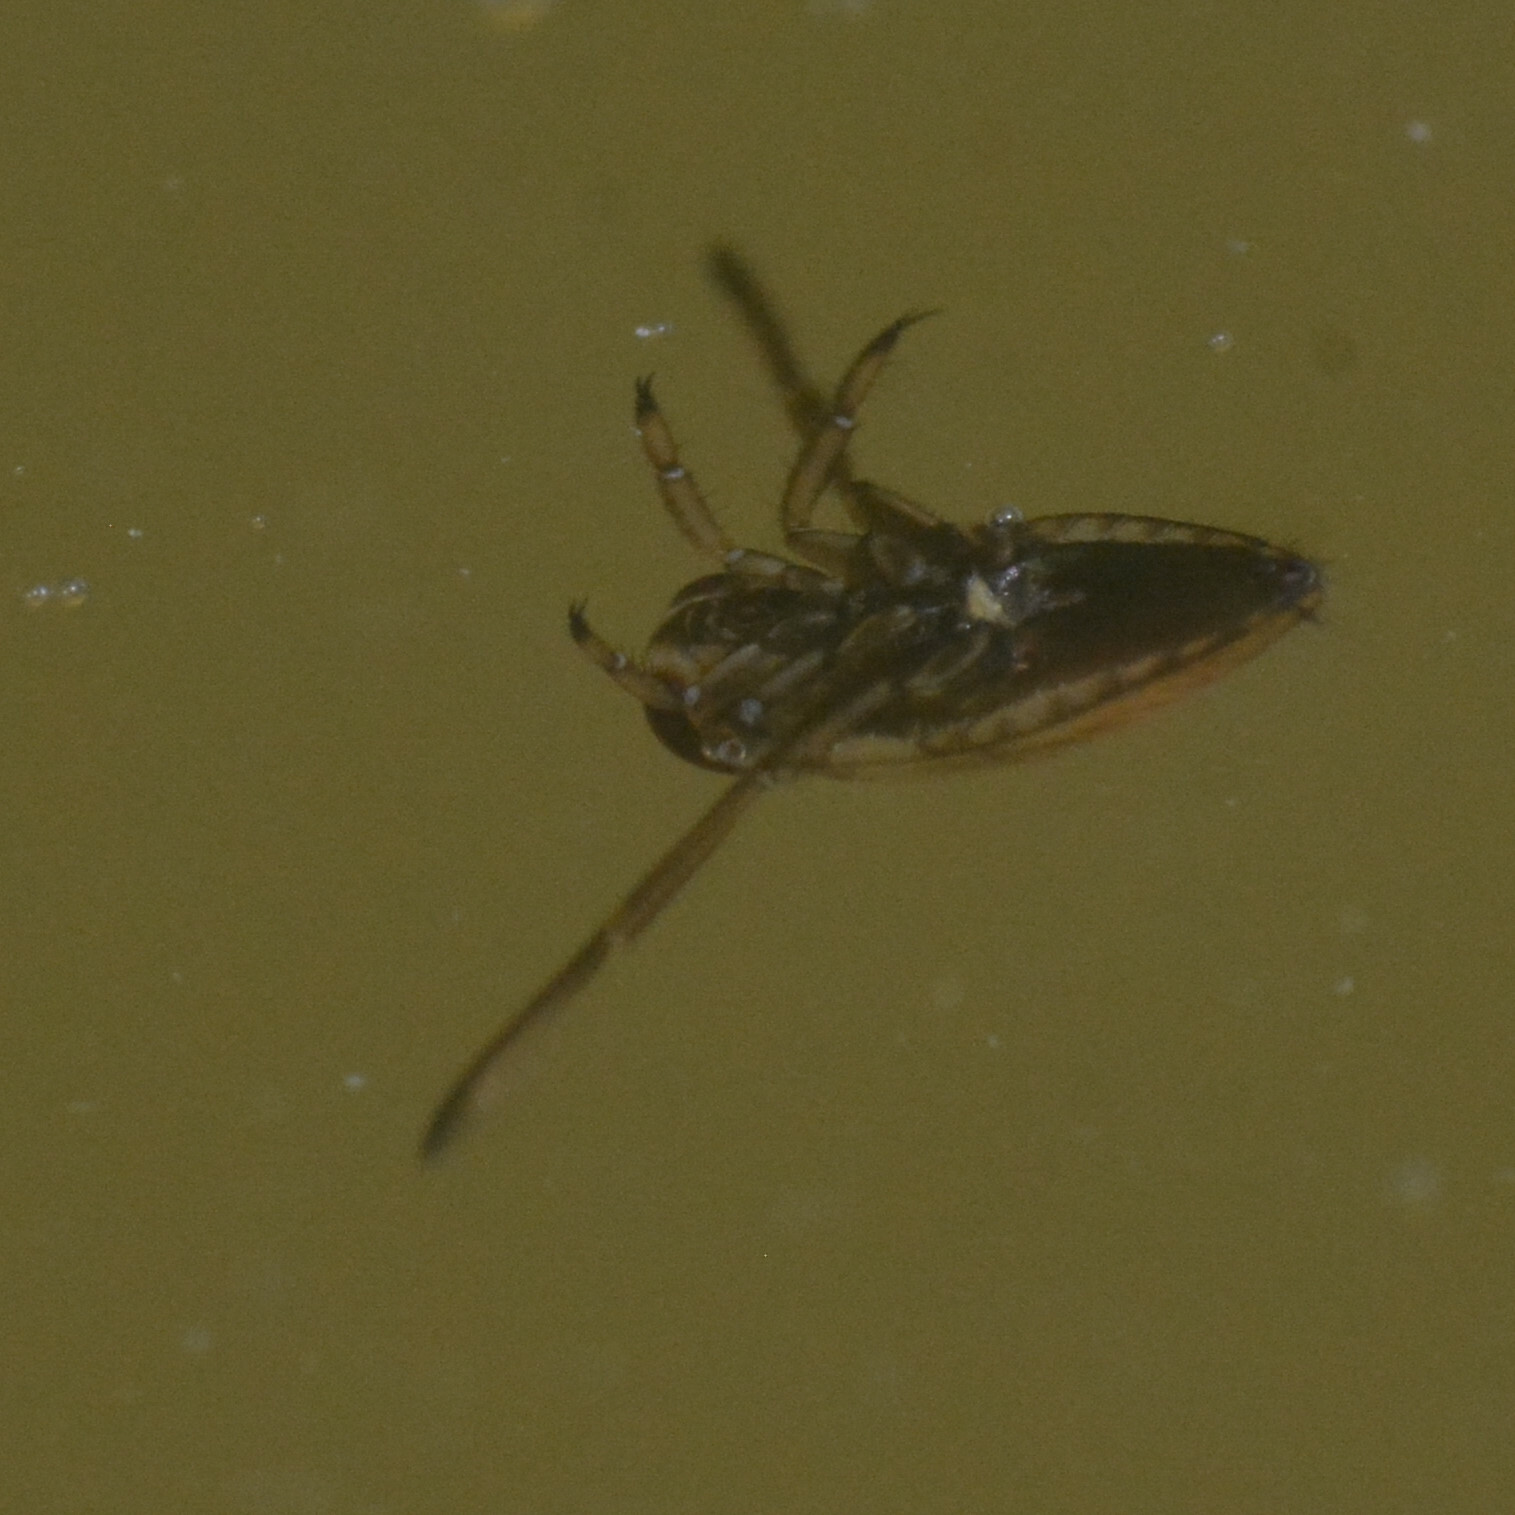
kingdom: Animalia
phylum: Arthropoda
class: Insecta
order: Hemiptera
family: Notonectidae
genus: Notonecta
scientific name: Notonecta
